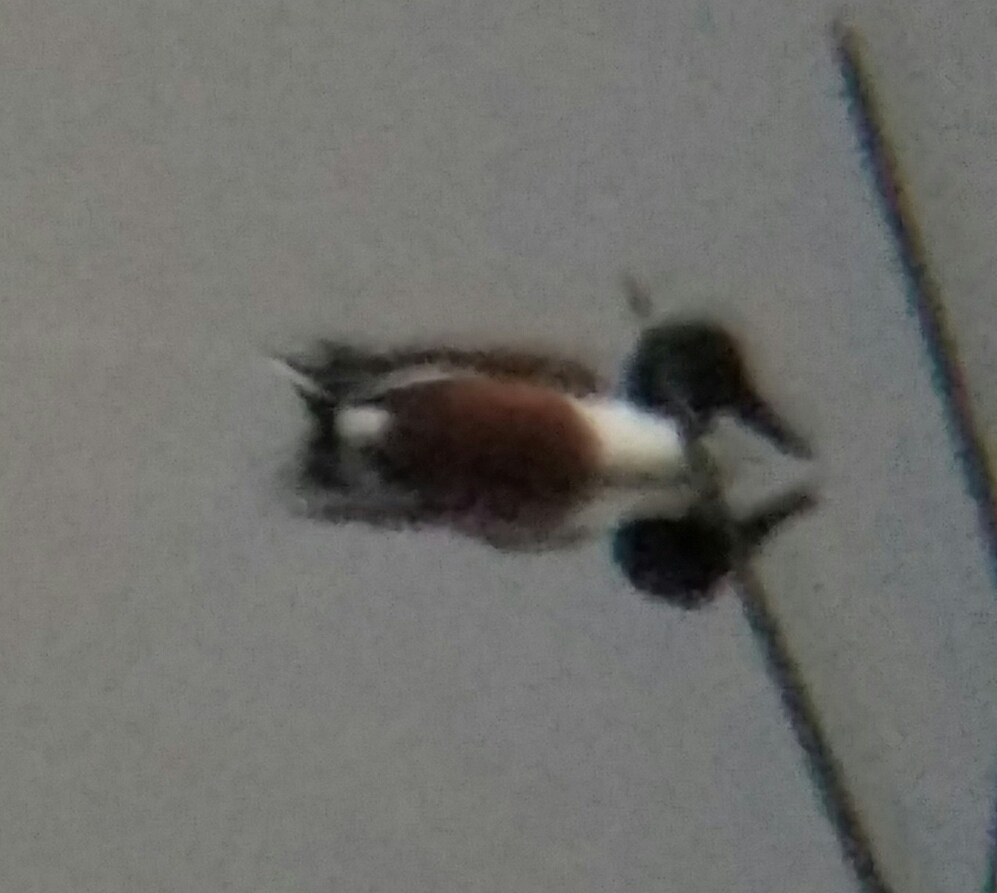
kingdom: Animalia
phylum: Chordata
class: Aves
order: Anseriformes
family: Anatidae
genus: Spatula
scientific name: Spatula clypeata
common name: Northern shoveler
